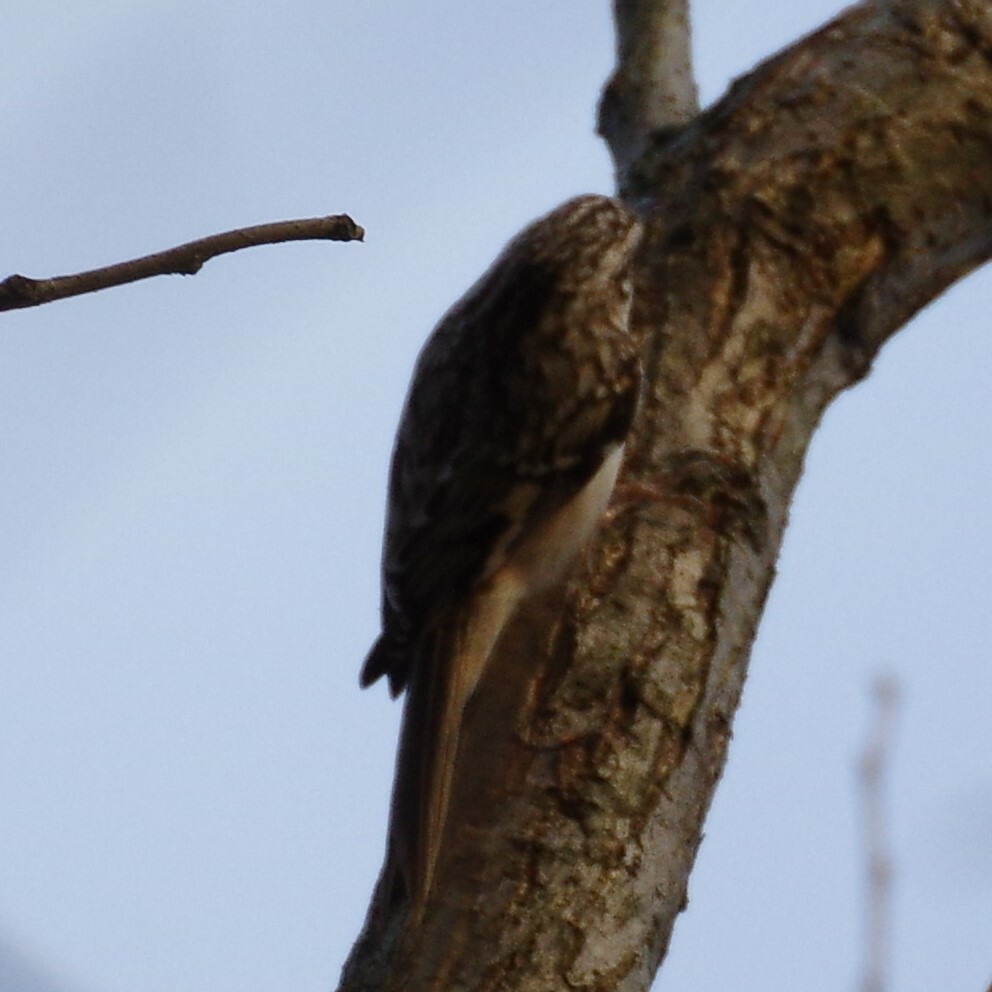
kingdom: Animalia
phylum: Chordata
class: Aves
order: Passeriformes
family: Certhiidae
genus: Certhia
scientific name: Certhia americana
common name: Brown creeper
